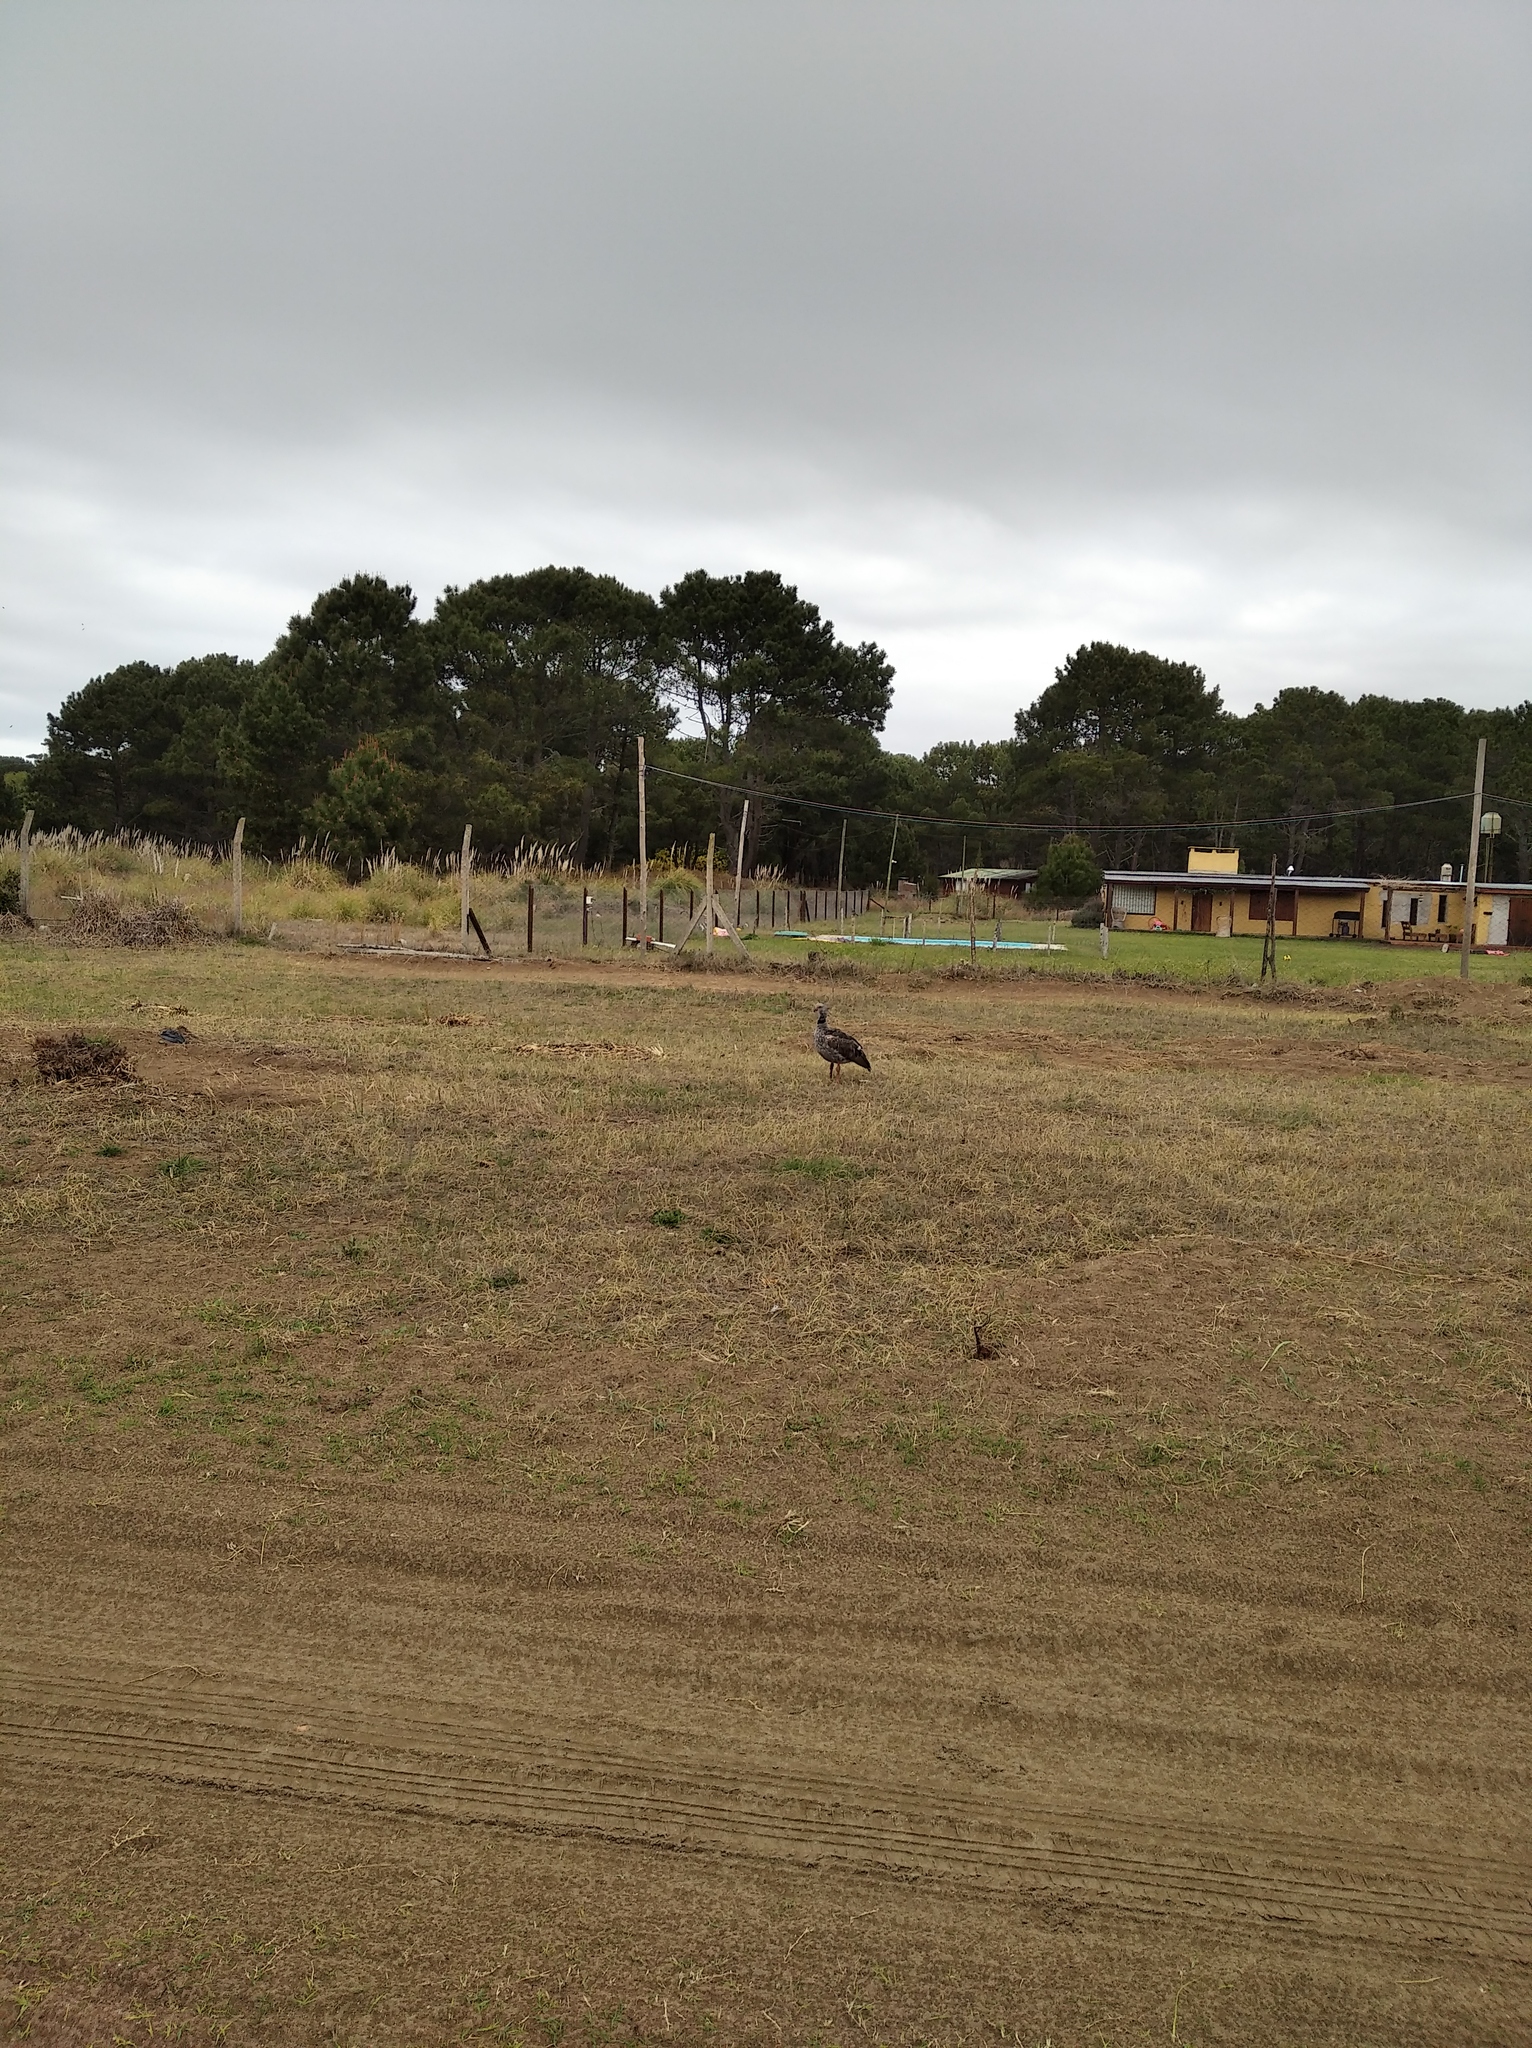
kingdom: Animalia
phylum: Chordata
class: Aves
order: Anseriformes
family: Anhimidae
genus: Chauna
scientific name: Chauna torquata
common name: Southern screamer
